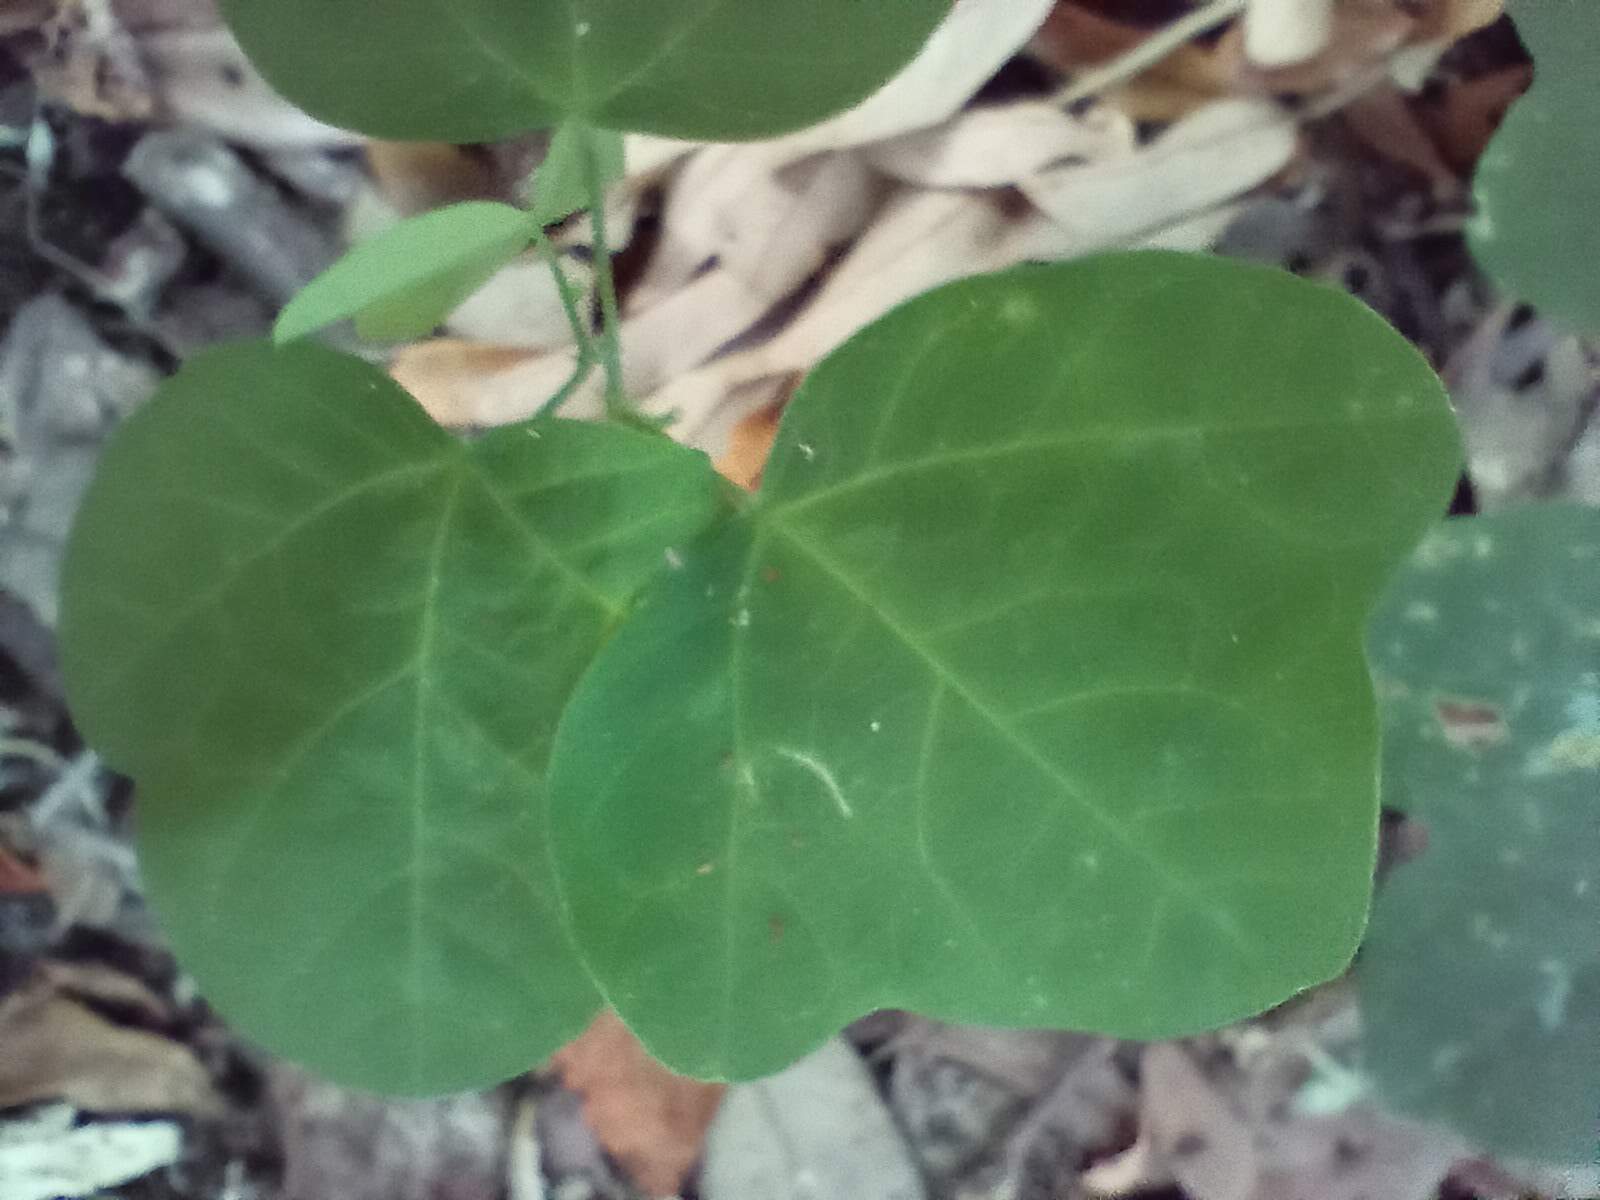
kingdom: Plantae
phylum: Tracheophyta
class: Magnoliopsida
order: Malpighiales
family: Passifloraceae
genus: Passiflora
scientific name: Passiflora lutea
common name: Yellow passionflower
